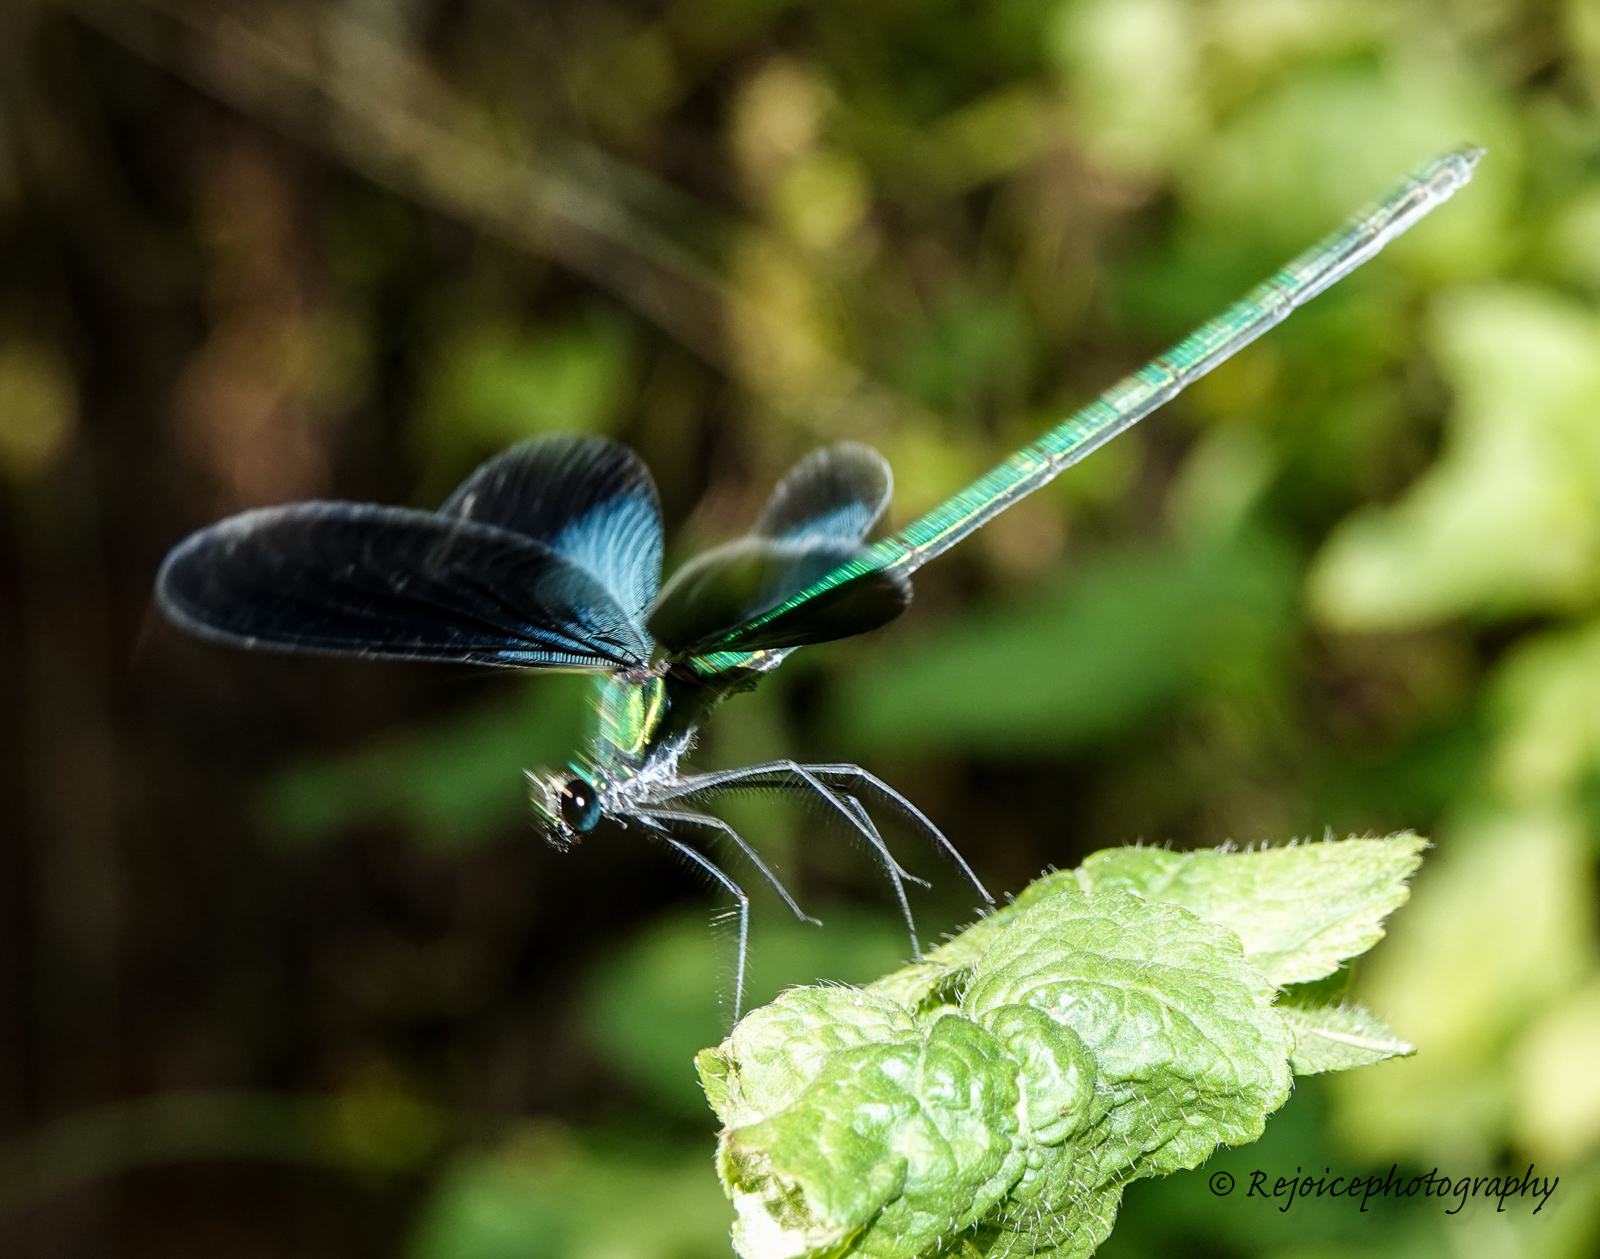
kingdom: Animalia
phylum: Arthropoda
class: Insecta
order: Odonata
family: Calopterygidae
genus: Matrona
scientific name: Matrona nigripectus
